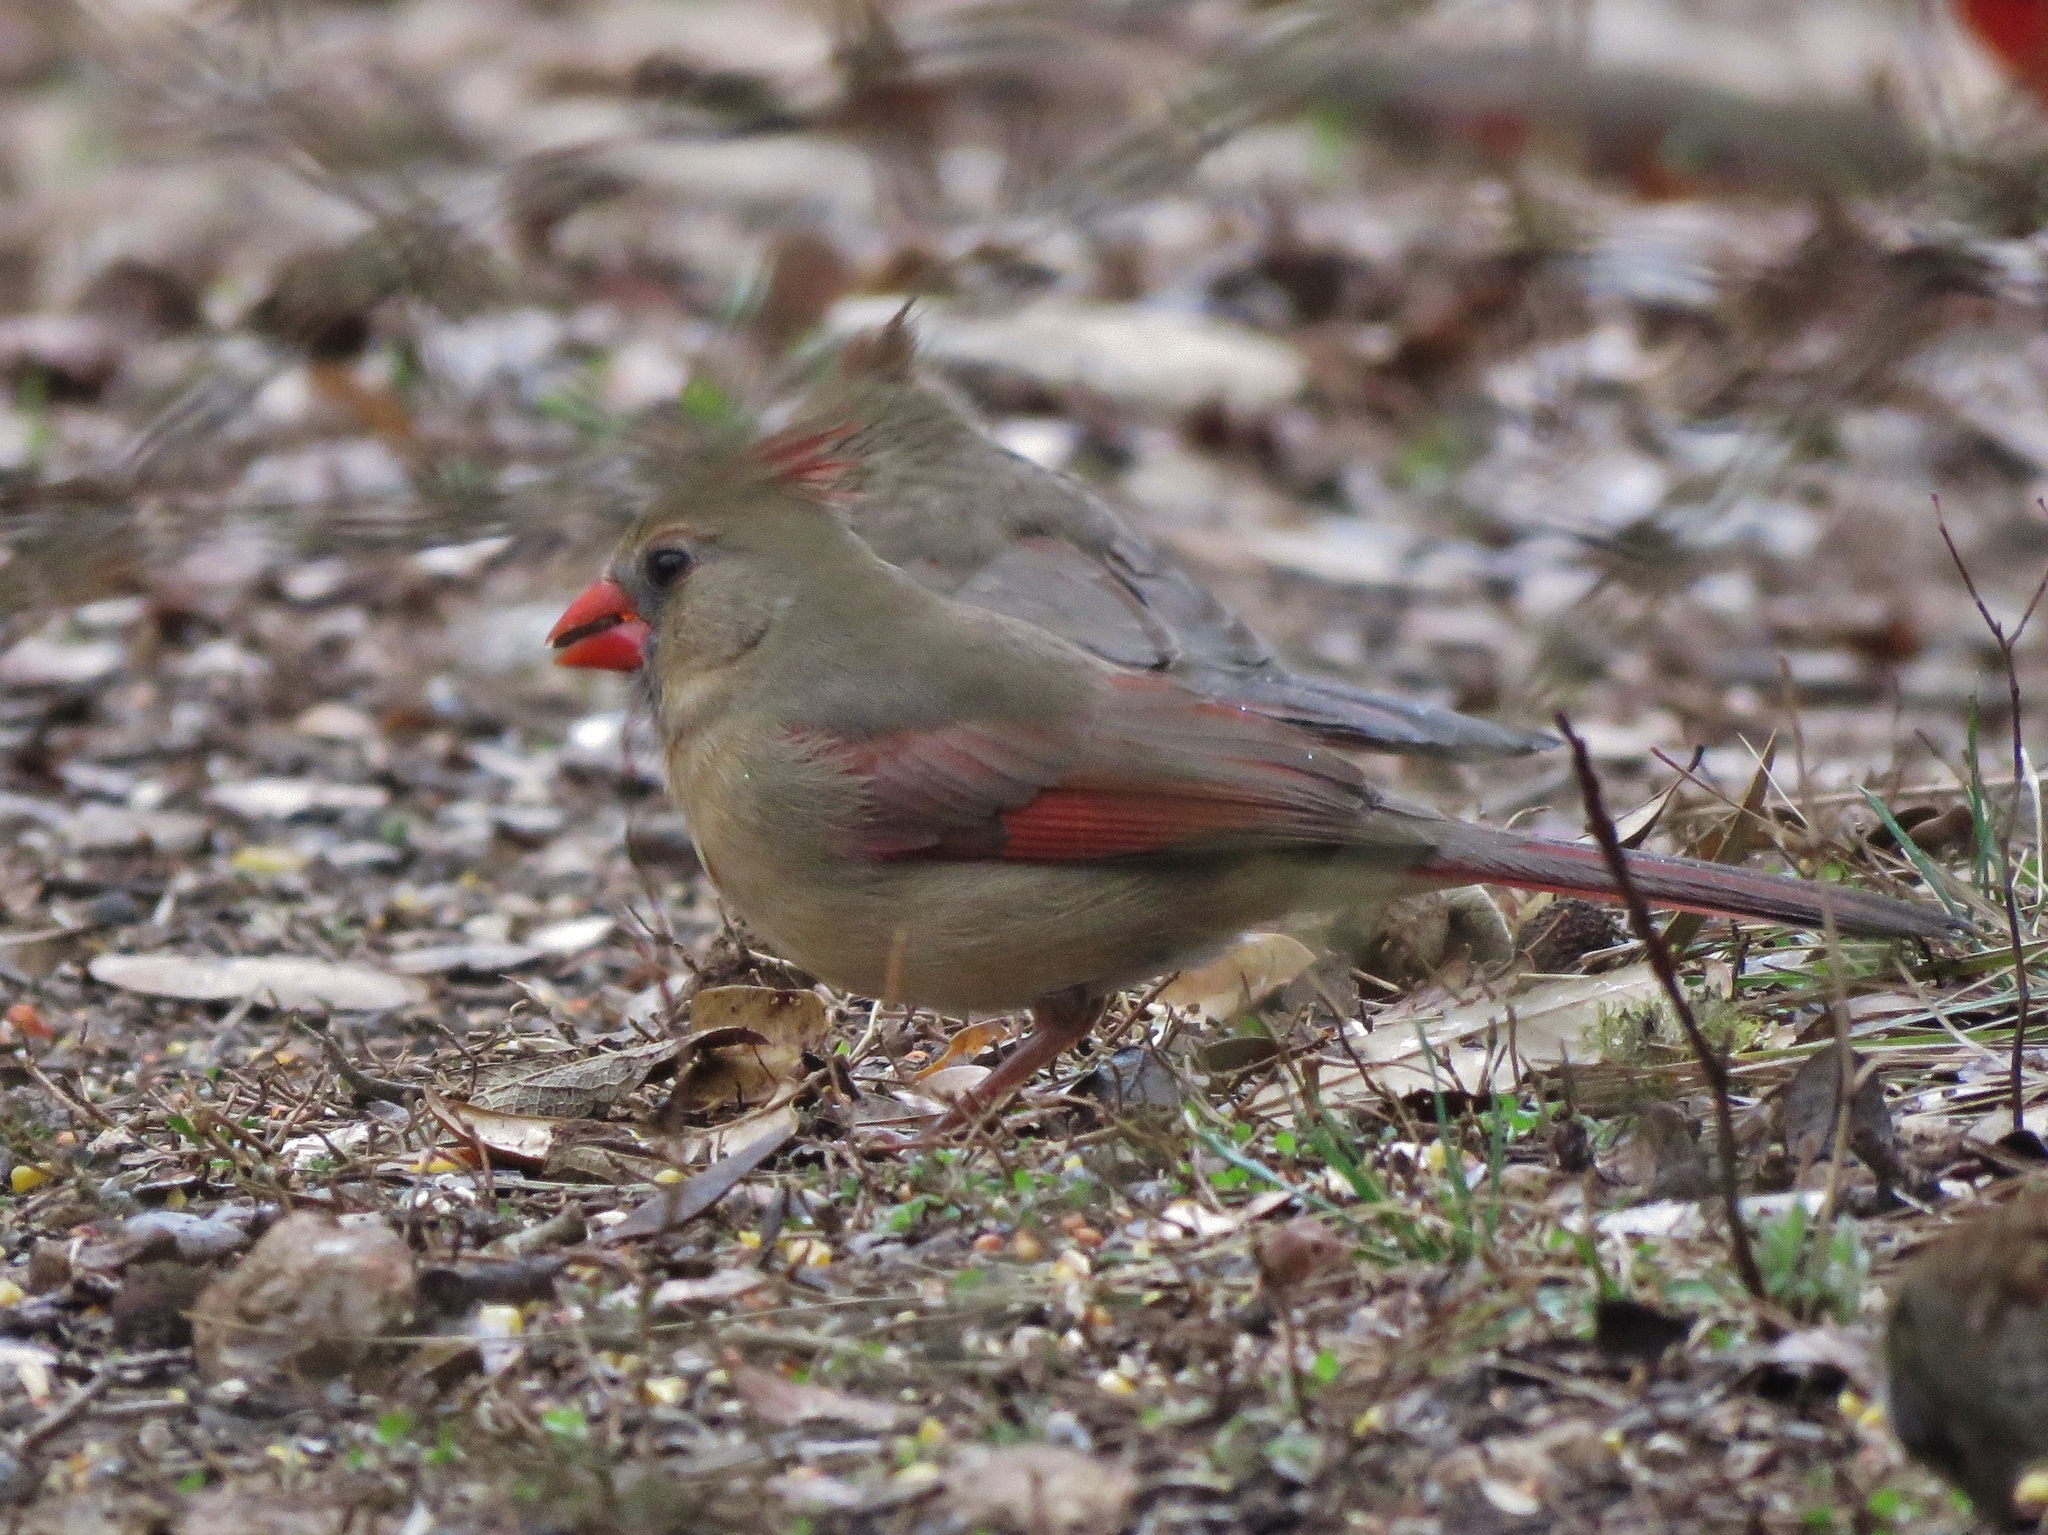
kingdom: Animalia
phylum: Chordata
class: Aves
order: Passeriformes
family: Cardinalidae
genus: Cardinalis
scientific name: Cardinalis cardinalis
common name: Northern cardinal
